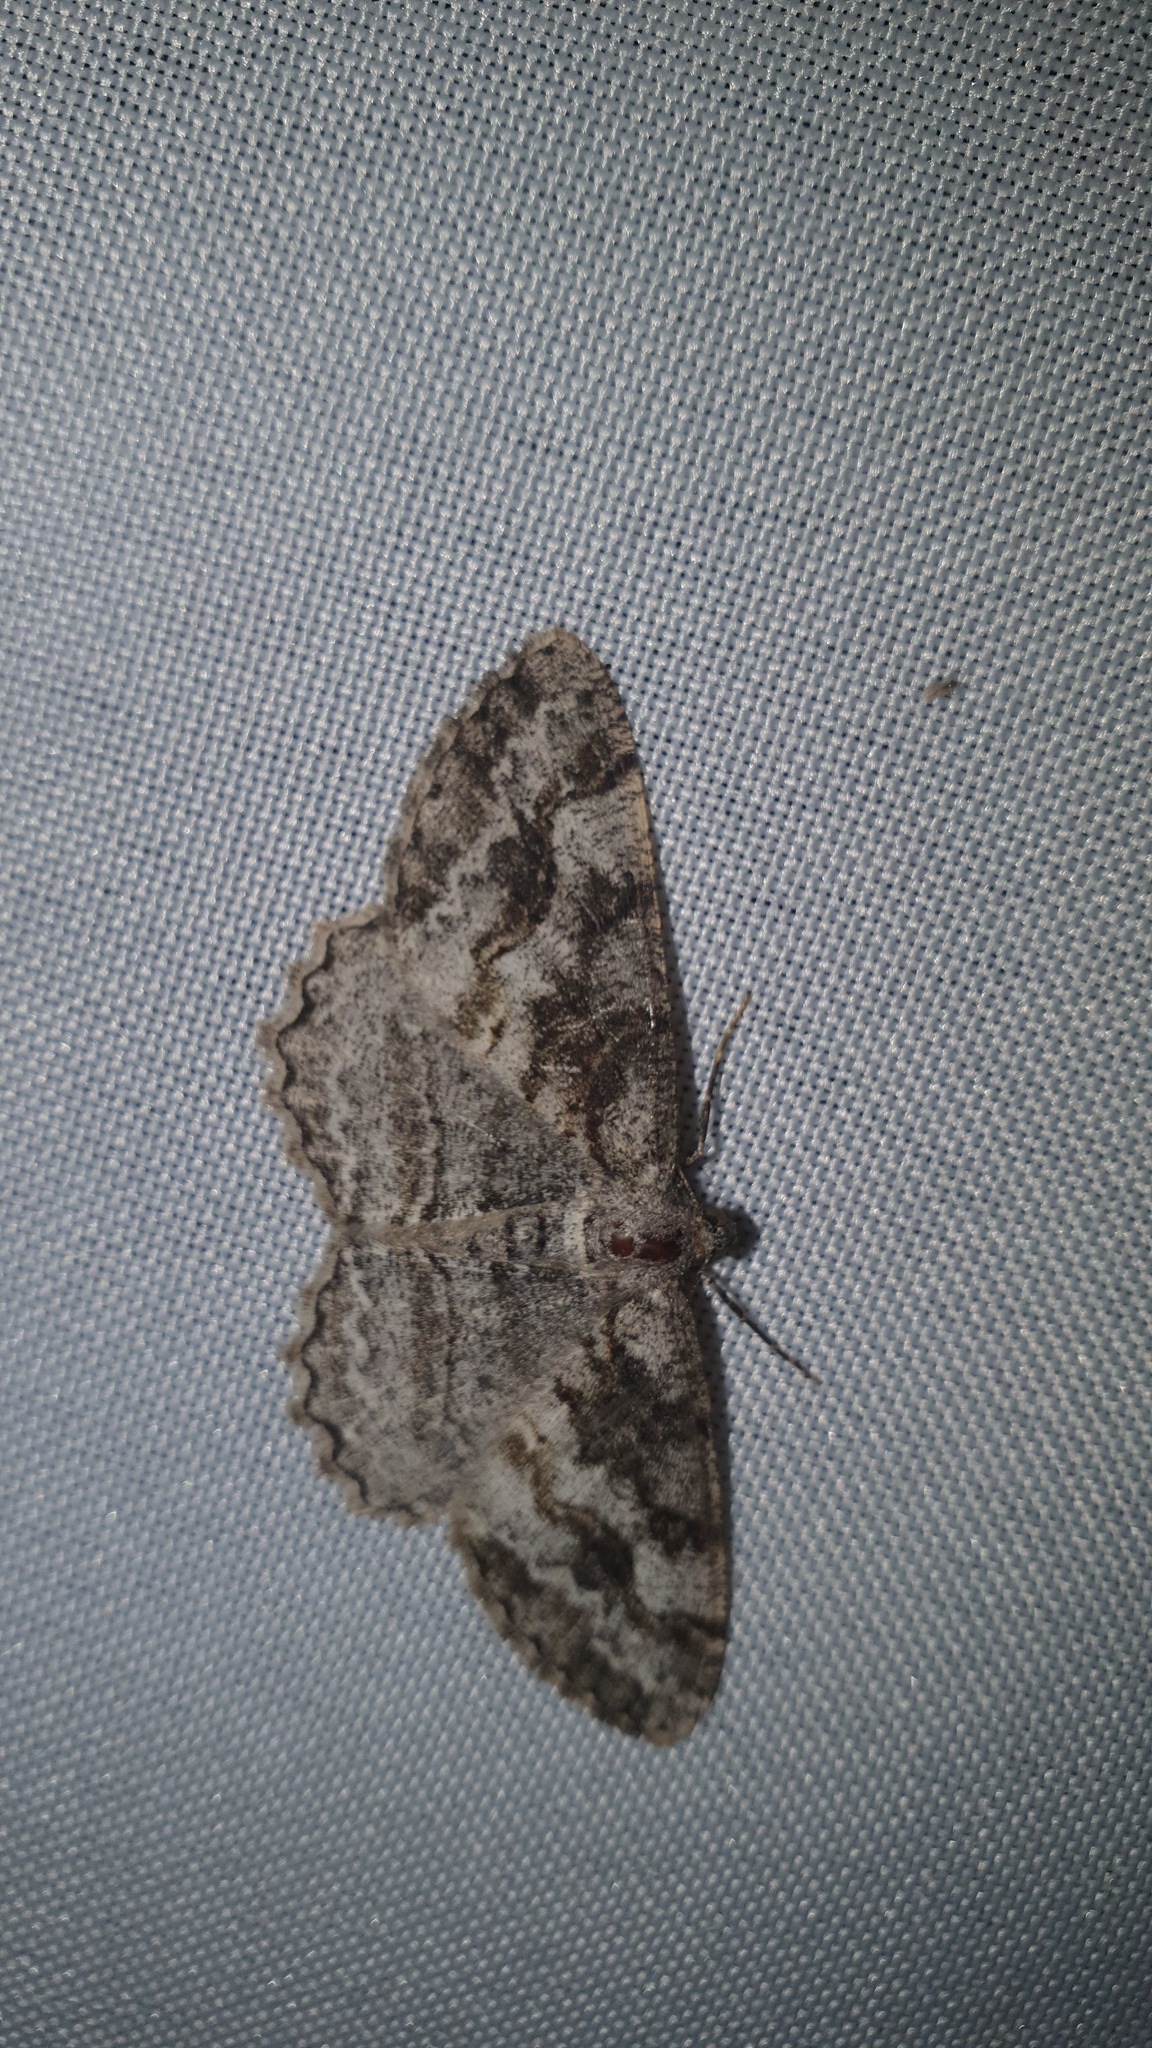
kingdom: Animalia
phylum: Arthropoda
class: Insecta
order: Lepidoptera
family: Geometridae
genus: Alcis
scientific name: Alcis repandata
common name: Mottled beauty
